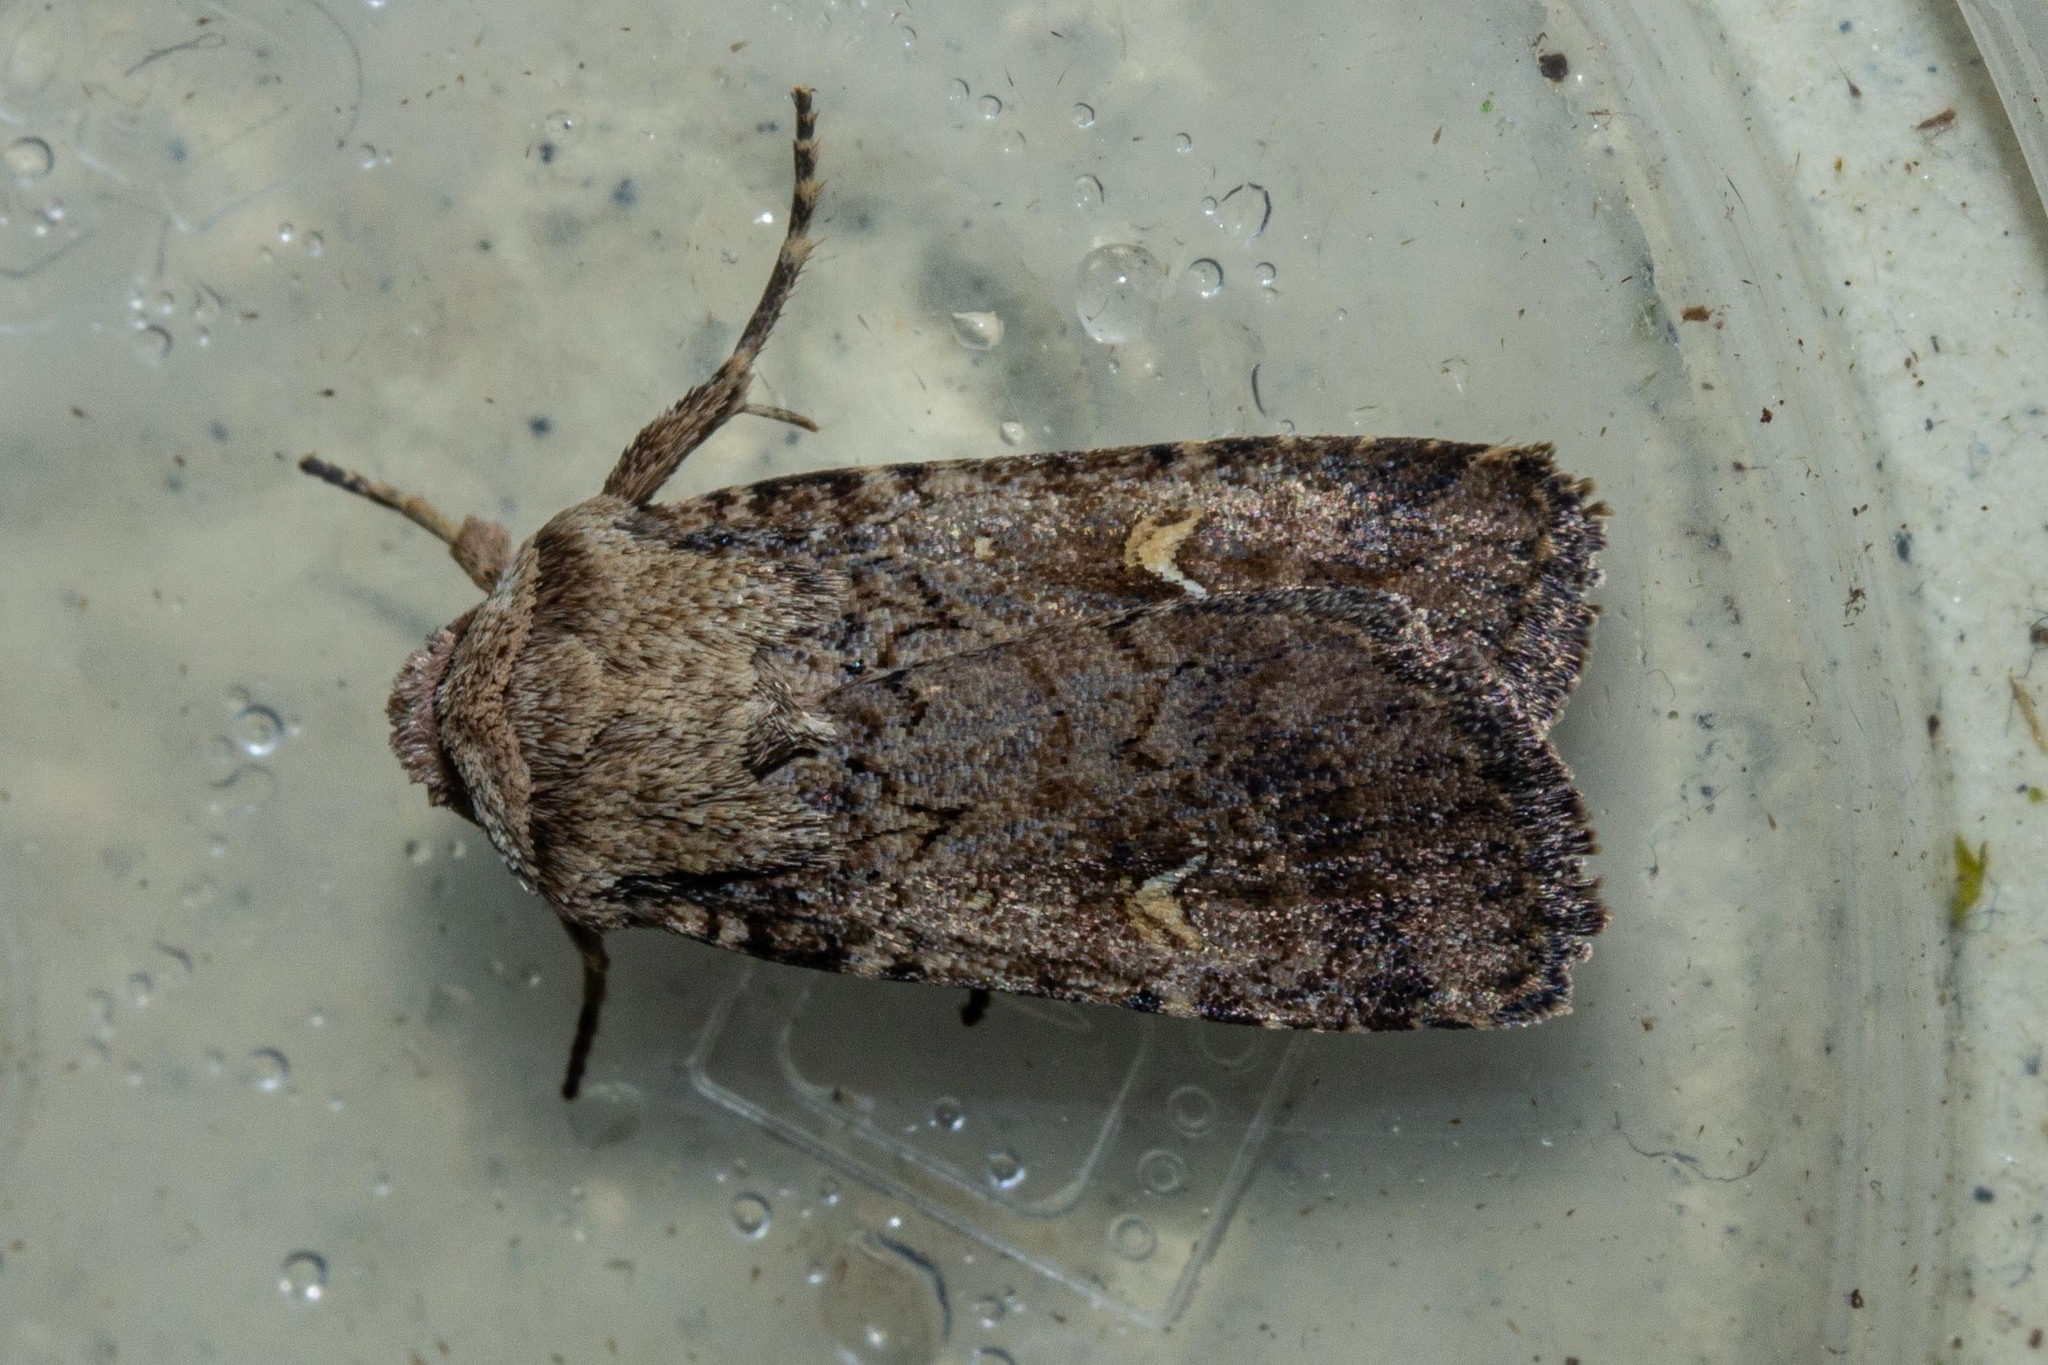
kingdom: Animalia
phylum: Arthropoda
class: Insecta
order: Lepidoptera
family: Noctuidae
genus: Proteuxoa
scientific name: Proteuxoa tetronycha
